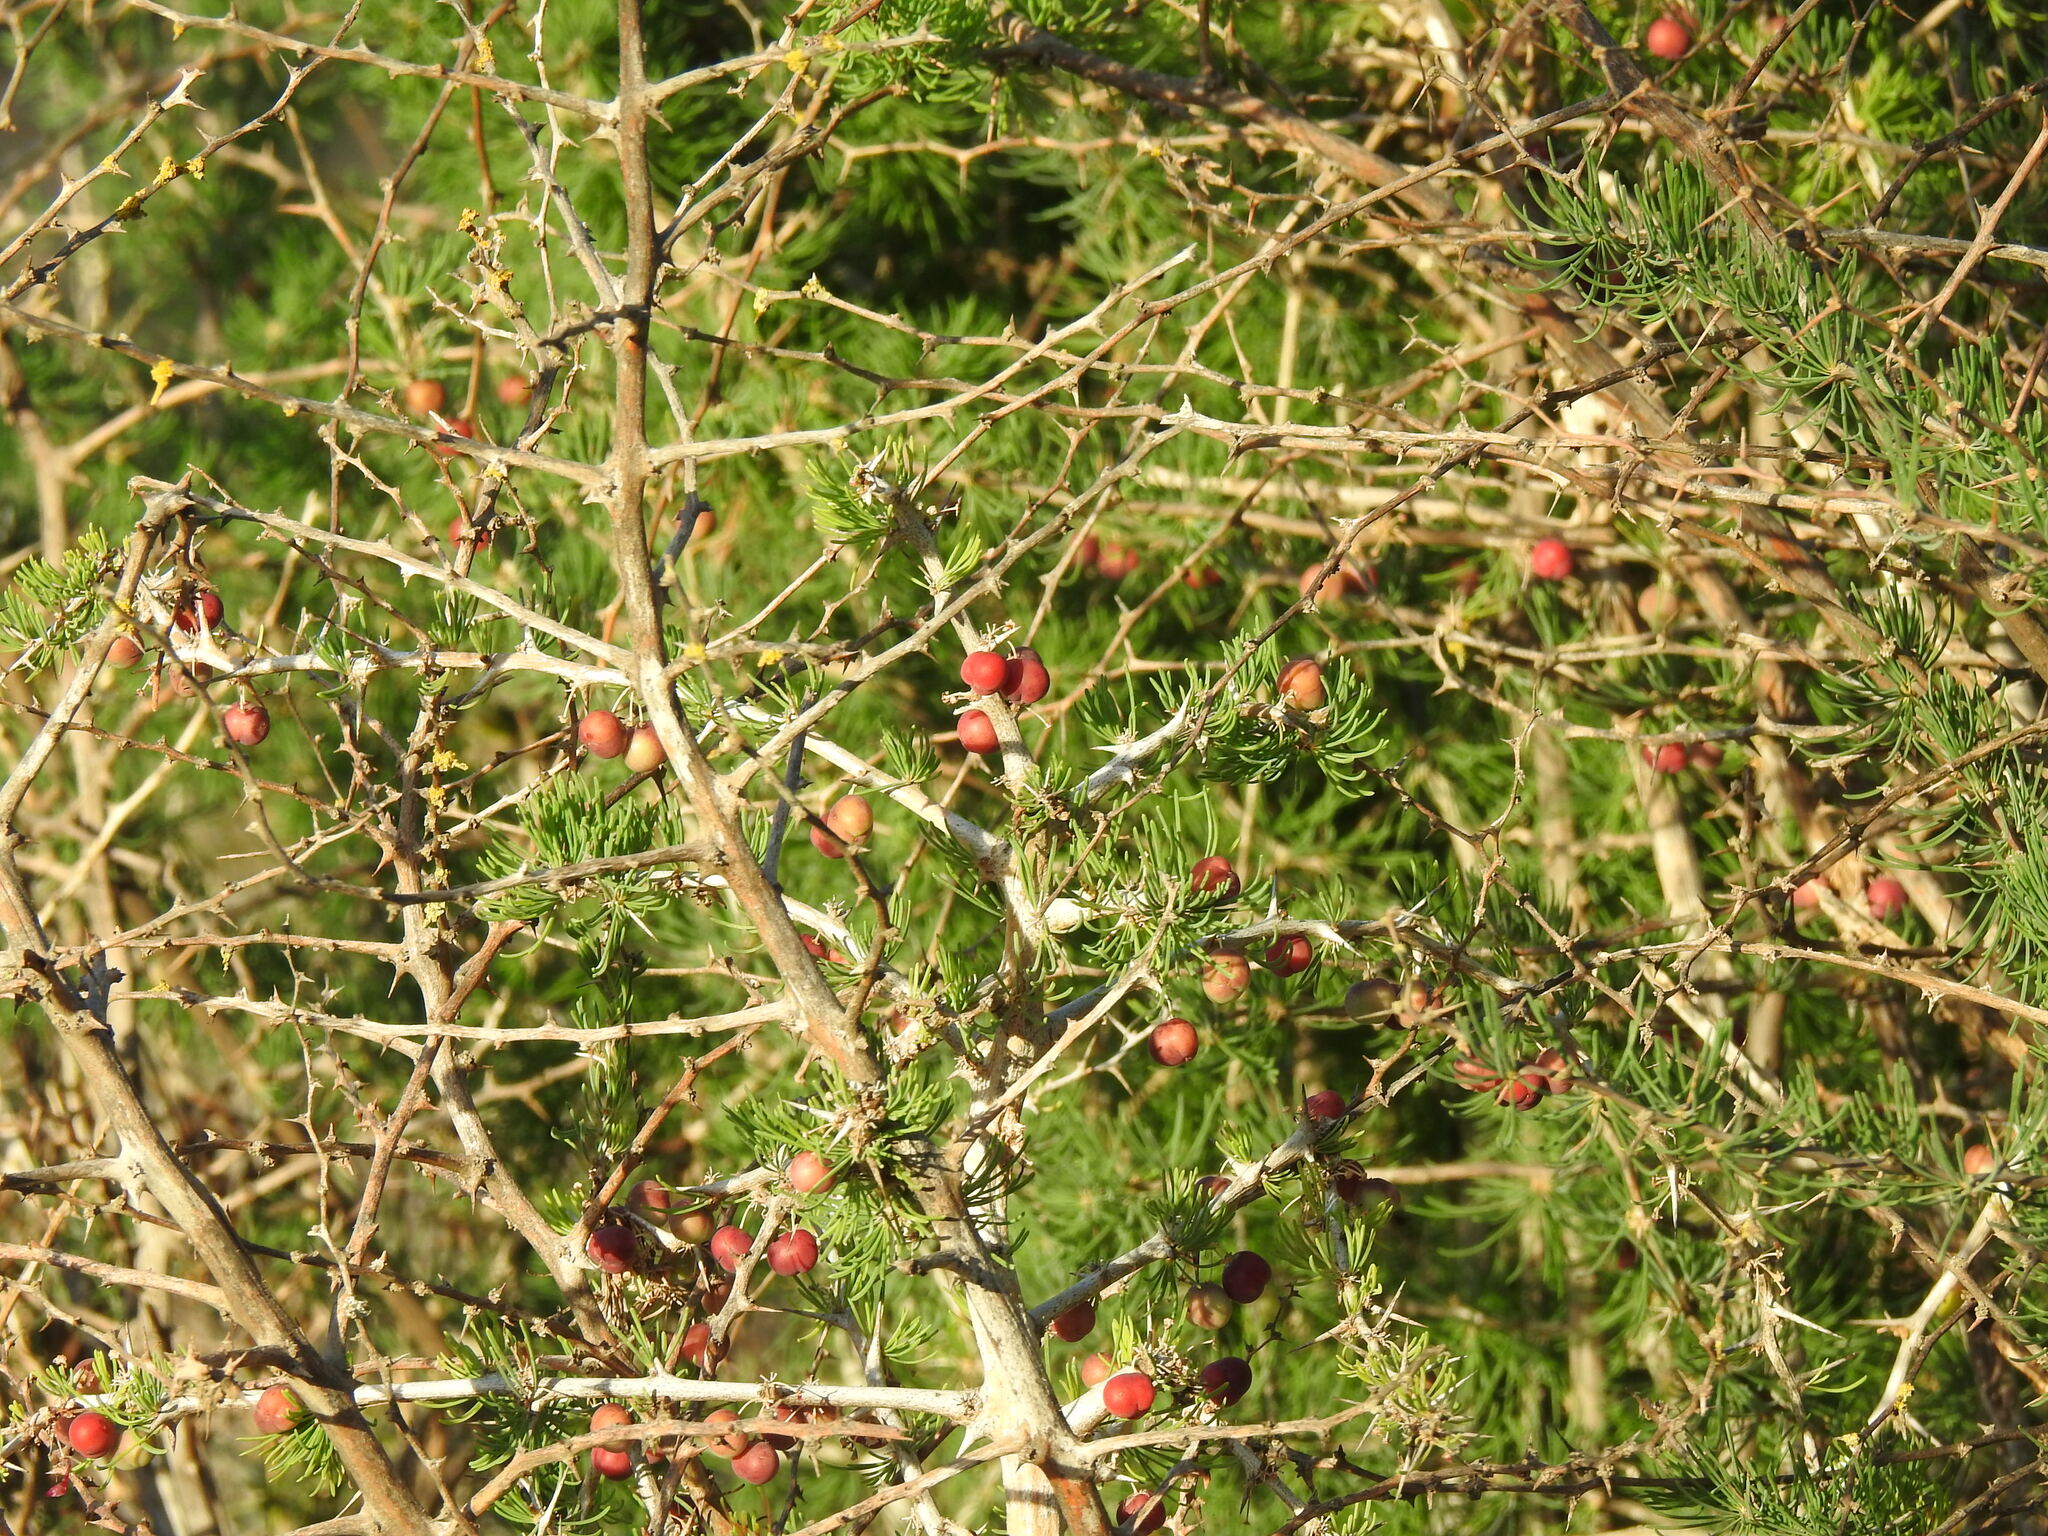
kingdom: Plantae
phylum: Tracheophyta
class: Liliopsida
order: Asparagales
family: Asparagaceae
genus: Asparagus
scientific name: Asparagus albus
